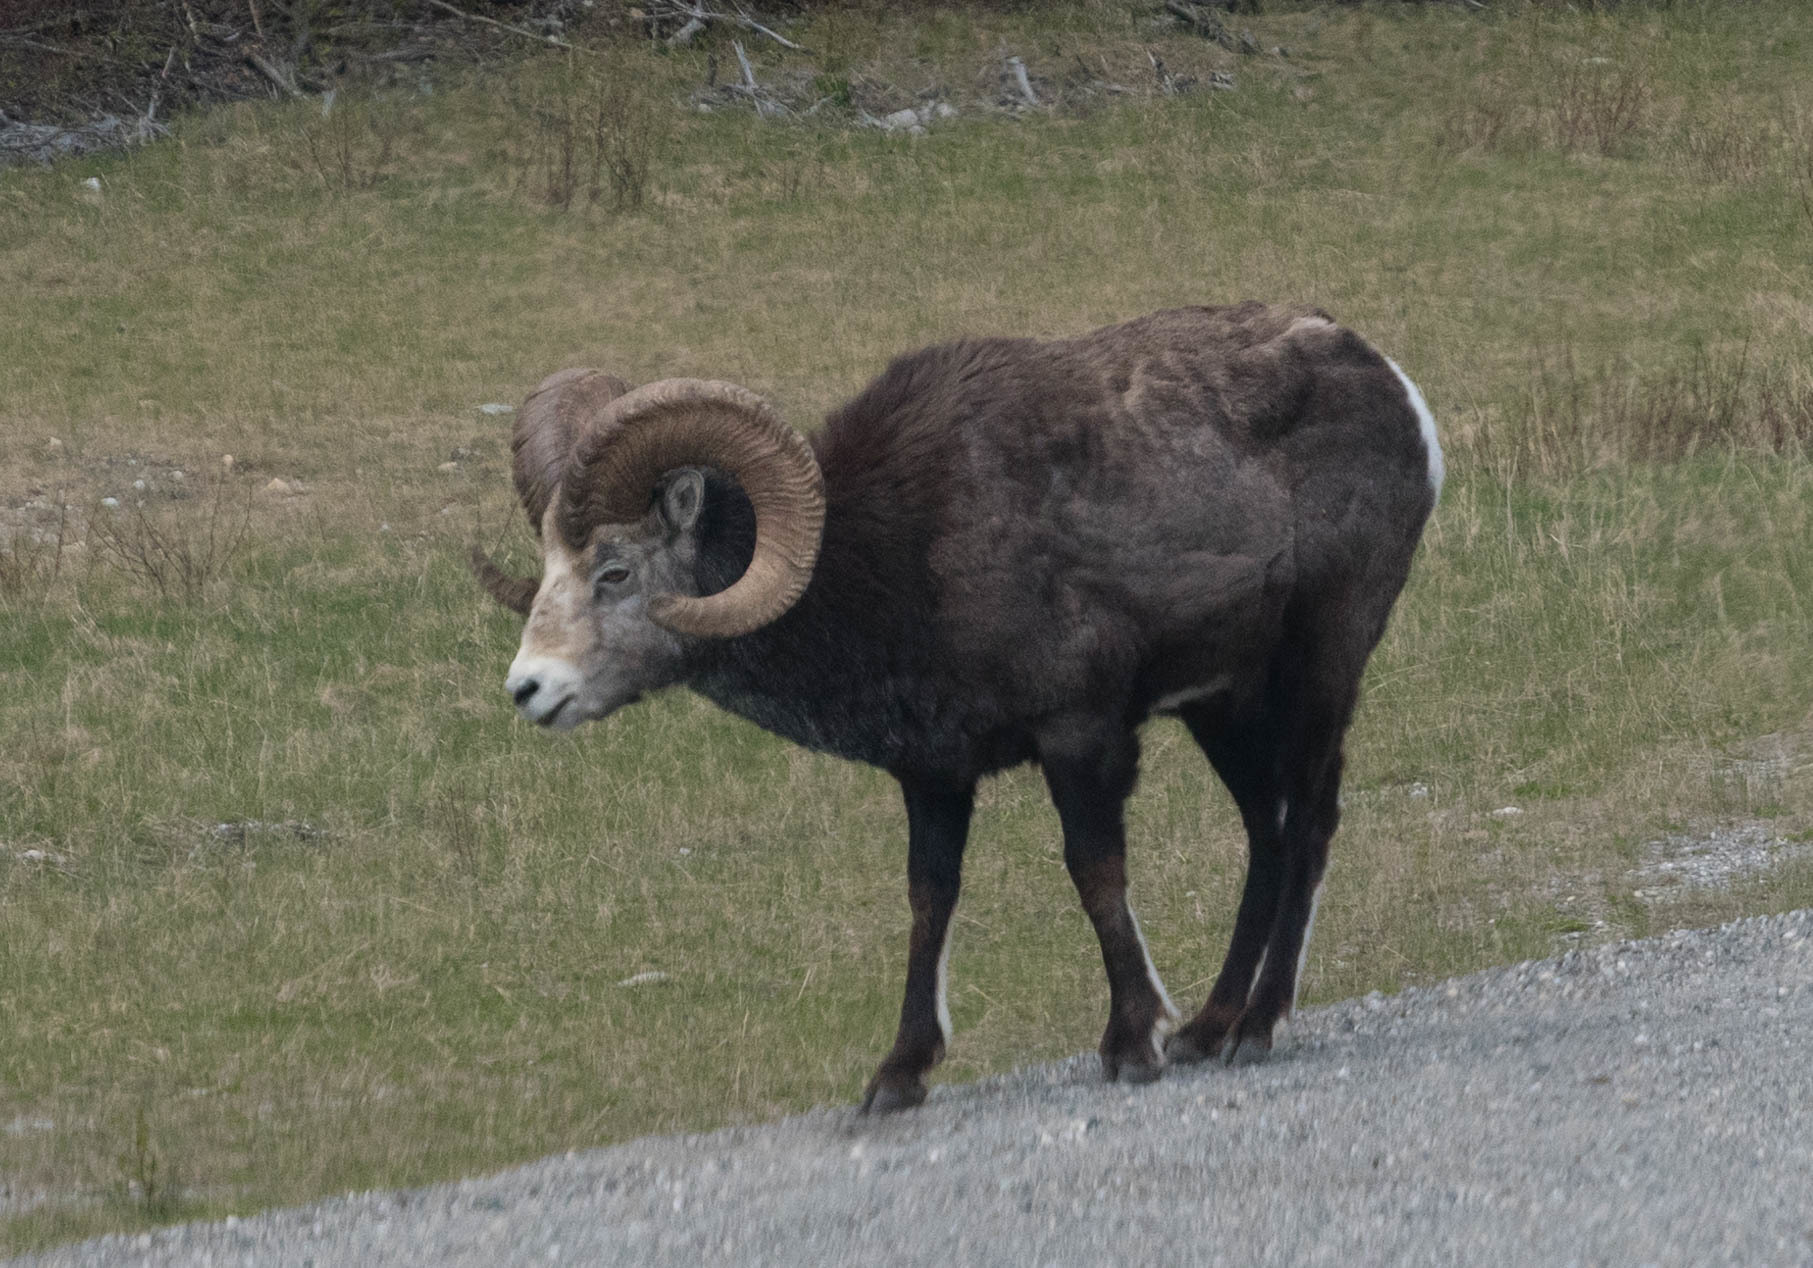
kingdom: Animalia
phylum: Chordata
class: Mammalia
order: Artiodactyla
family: Bovidae
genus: Ovis
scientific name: Ovis dalli
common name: Dall's sheep
